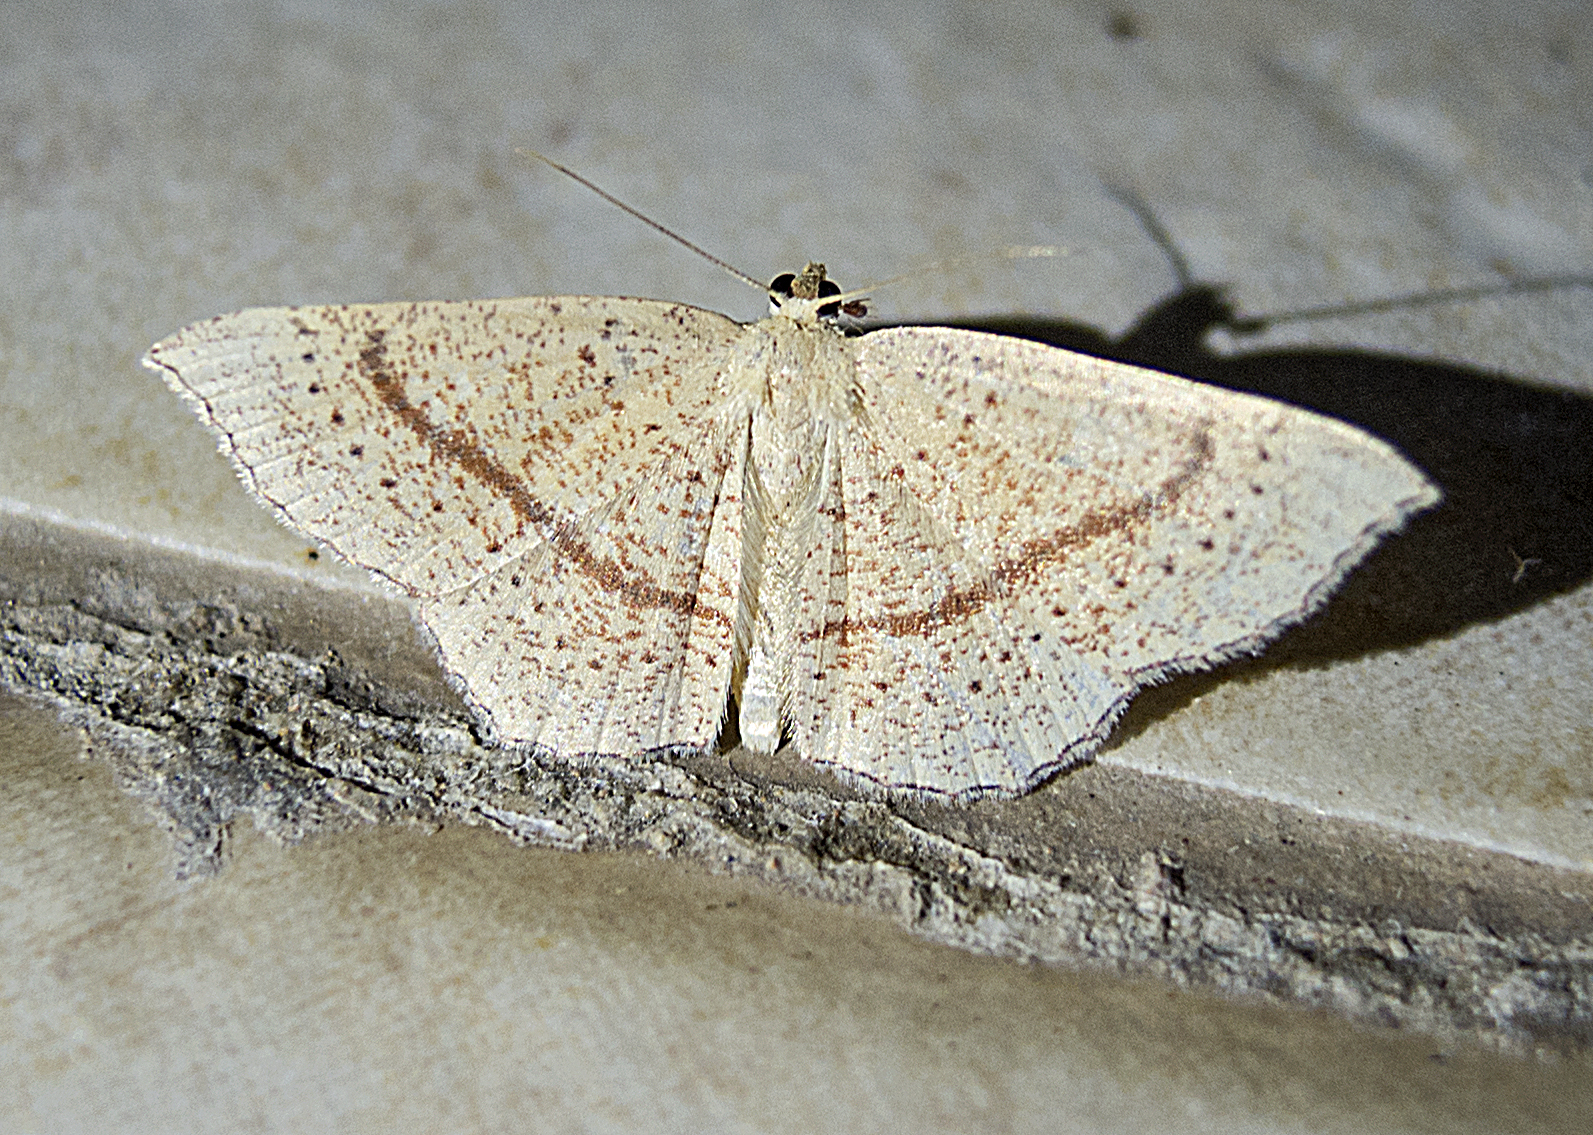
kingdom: Animalia
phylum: Arthropoda
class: Insecta
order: Lepidoptera
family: Geometridae
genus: Cyclophora
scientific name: Cyclophora punctaria
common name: Maiden's blush
